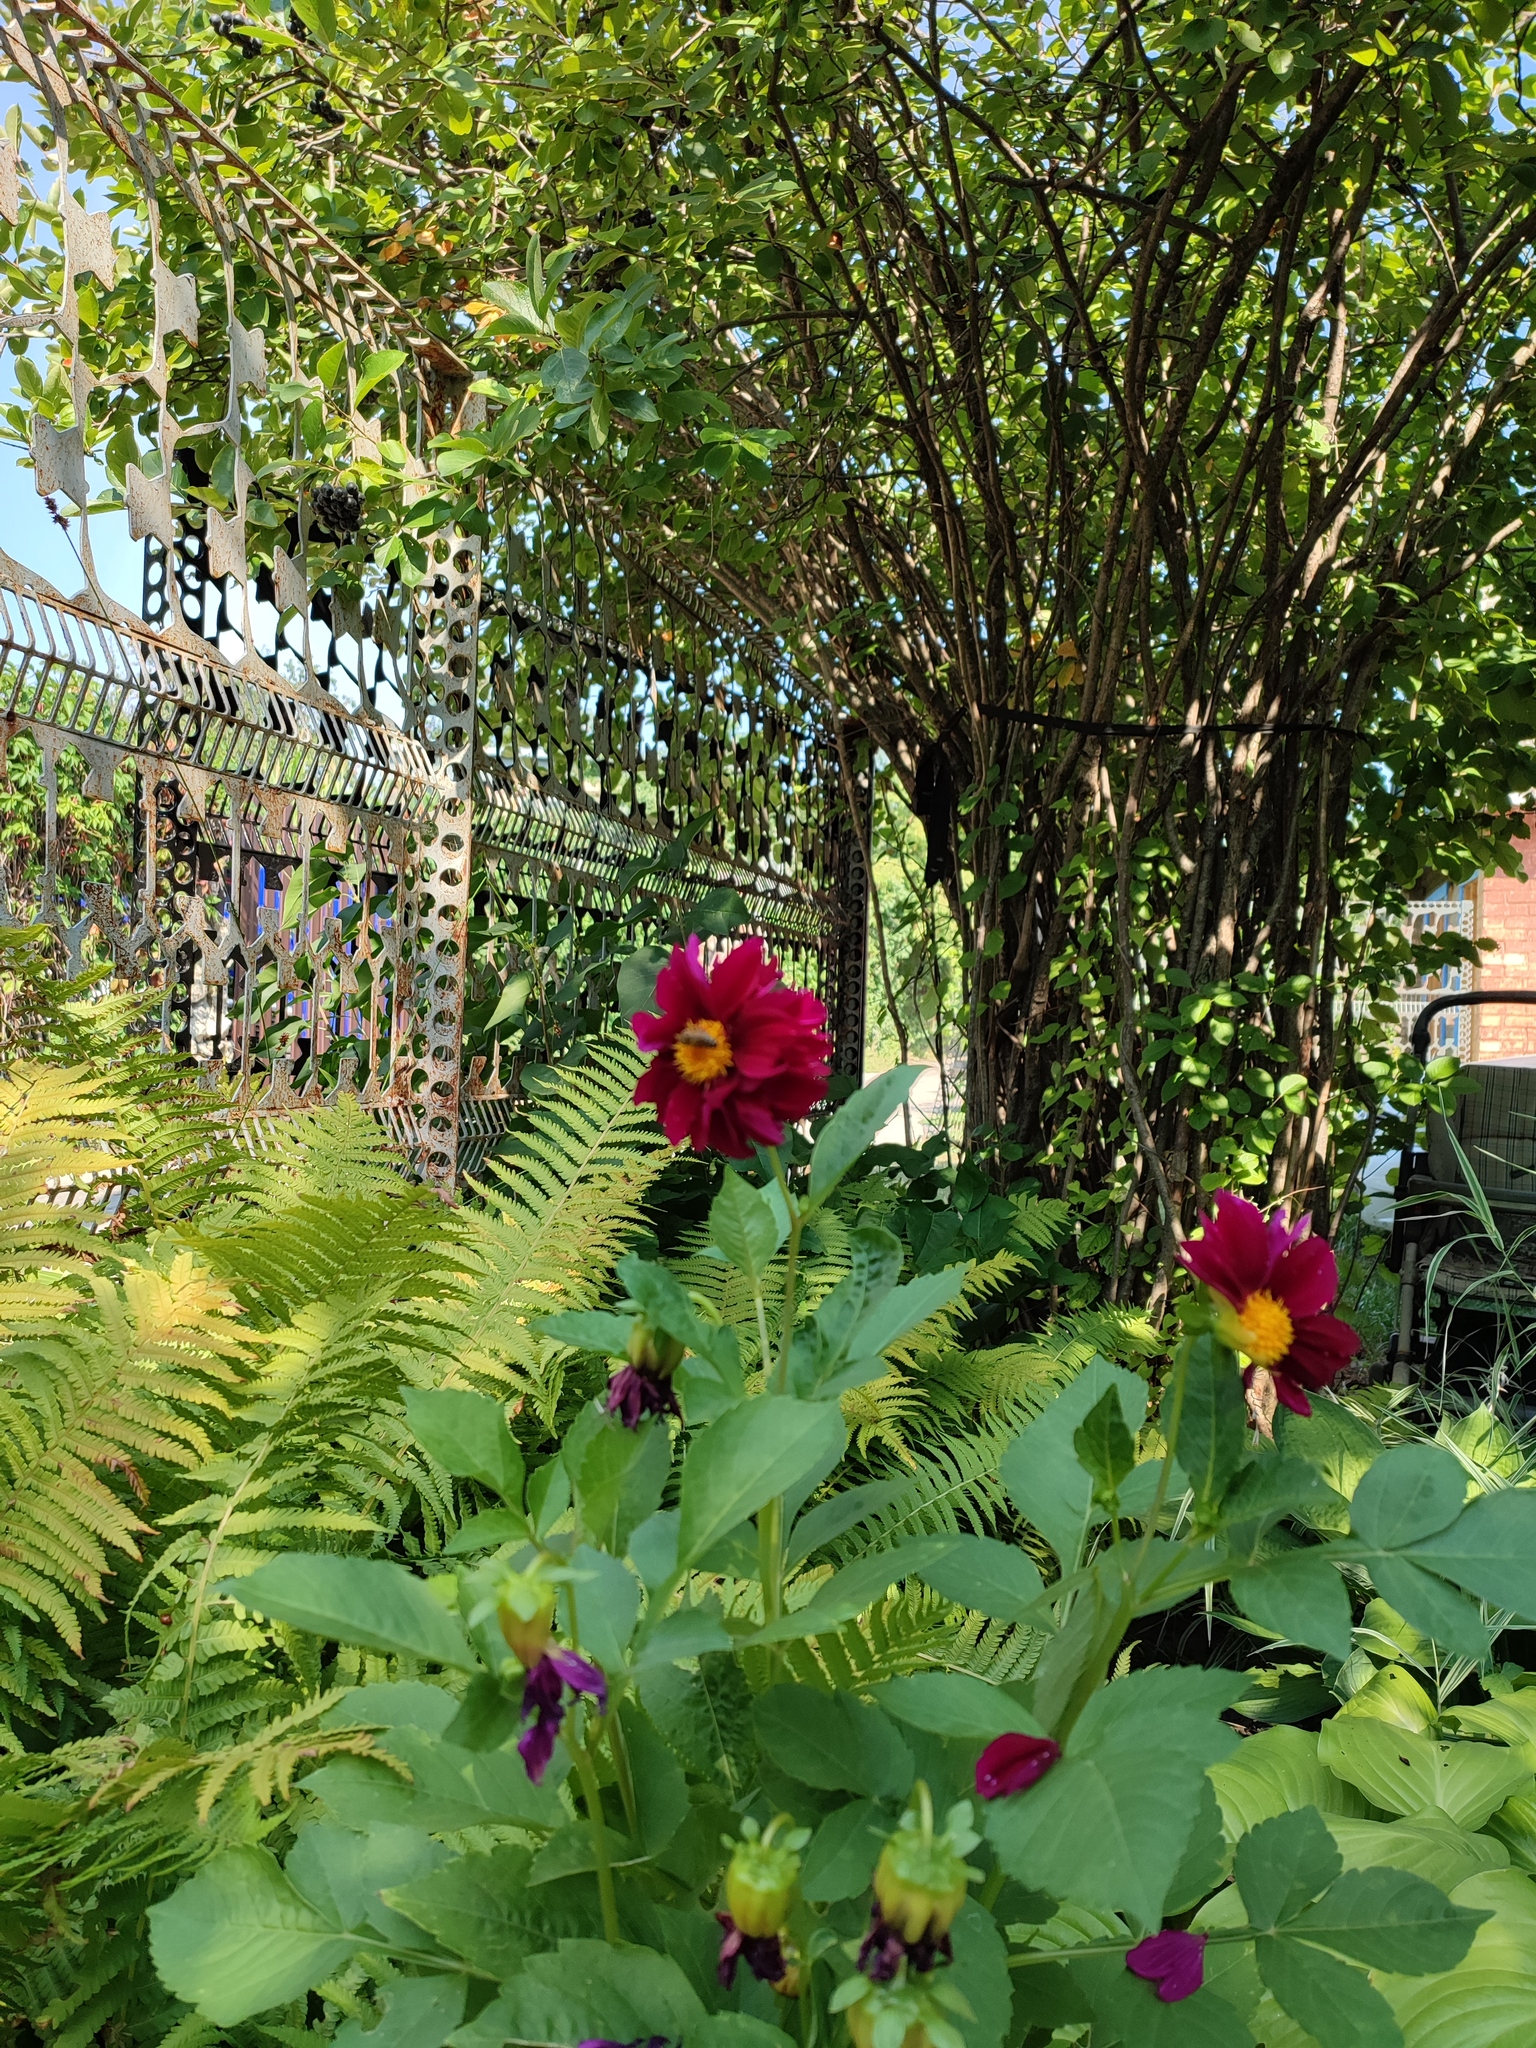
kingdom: Animalia
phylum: Arthropoda
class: Insecta
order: Hymenoptera
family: Apidae
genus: Apis
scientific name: Apis mellifera
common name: Honey bee
